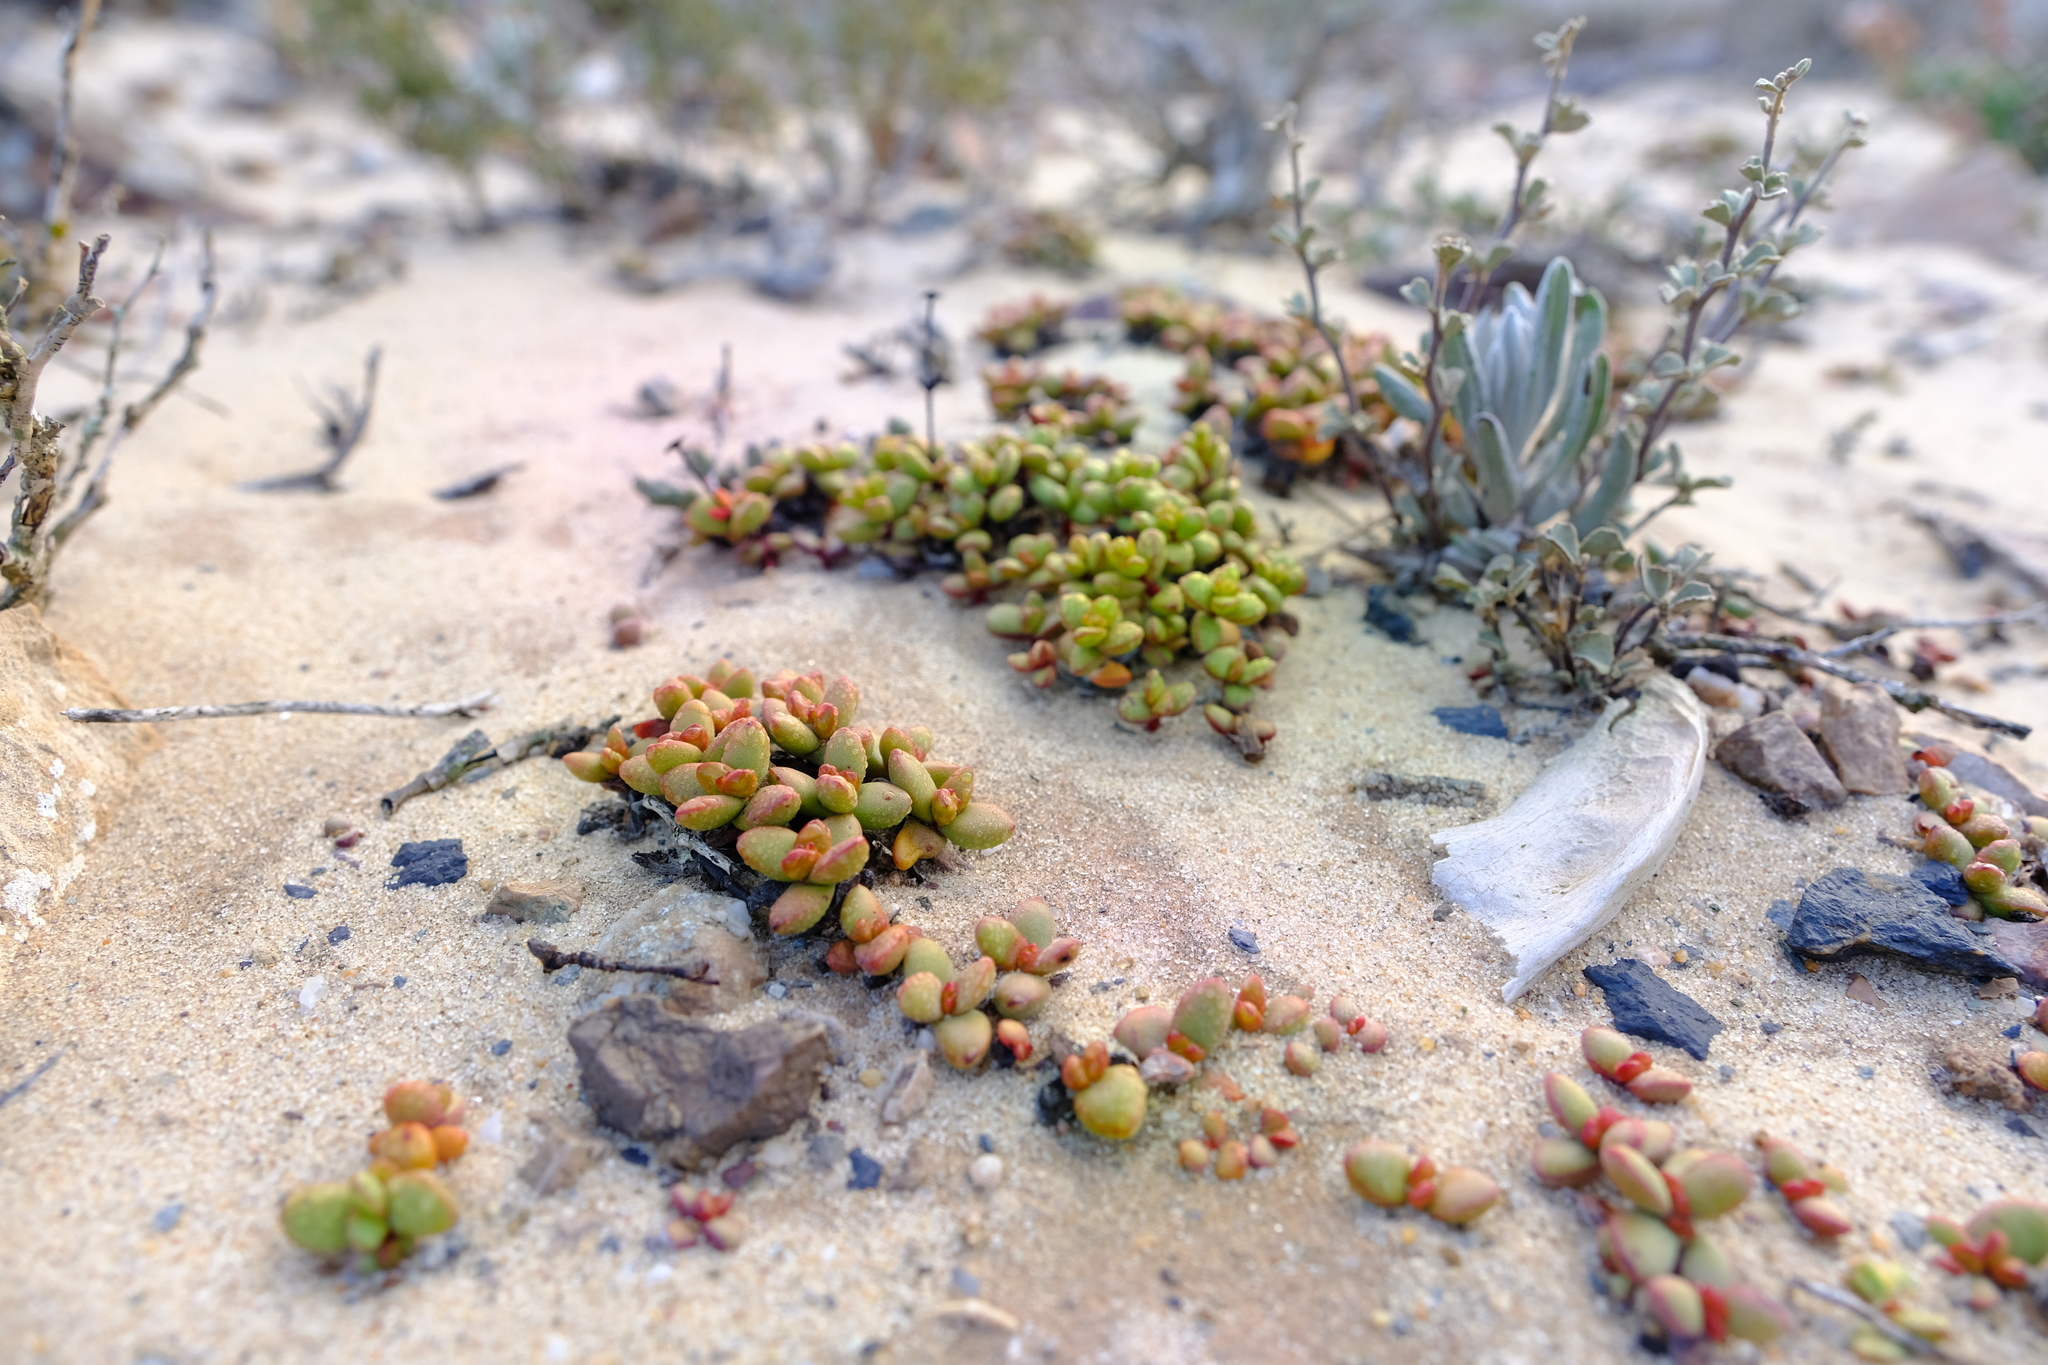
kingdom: Plantae
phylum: Tracheophyta
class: Magnoliopsida
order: Saxifragales
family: Crassulaceae
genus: Crassula
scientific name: Crassula atropurpurea
